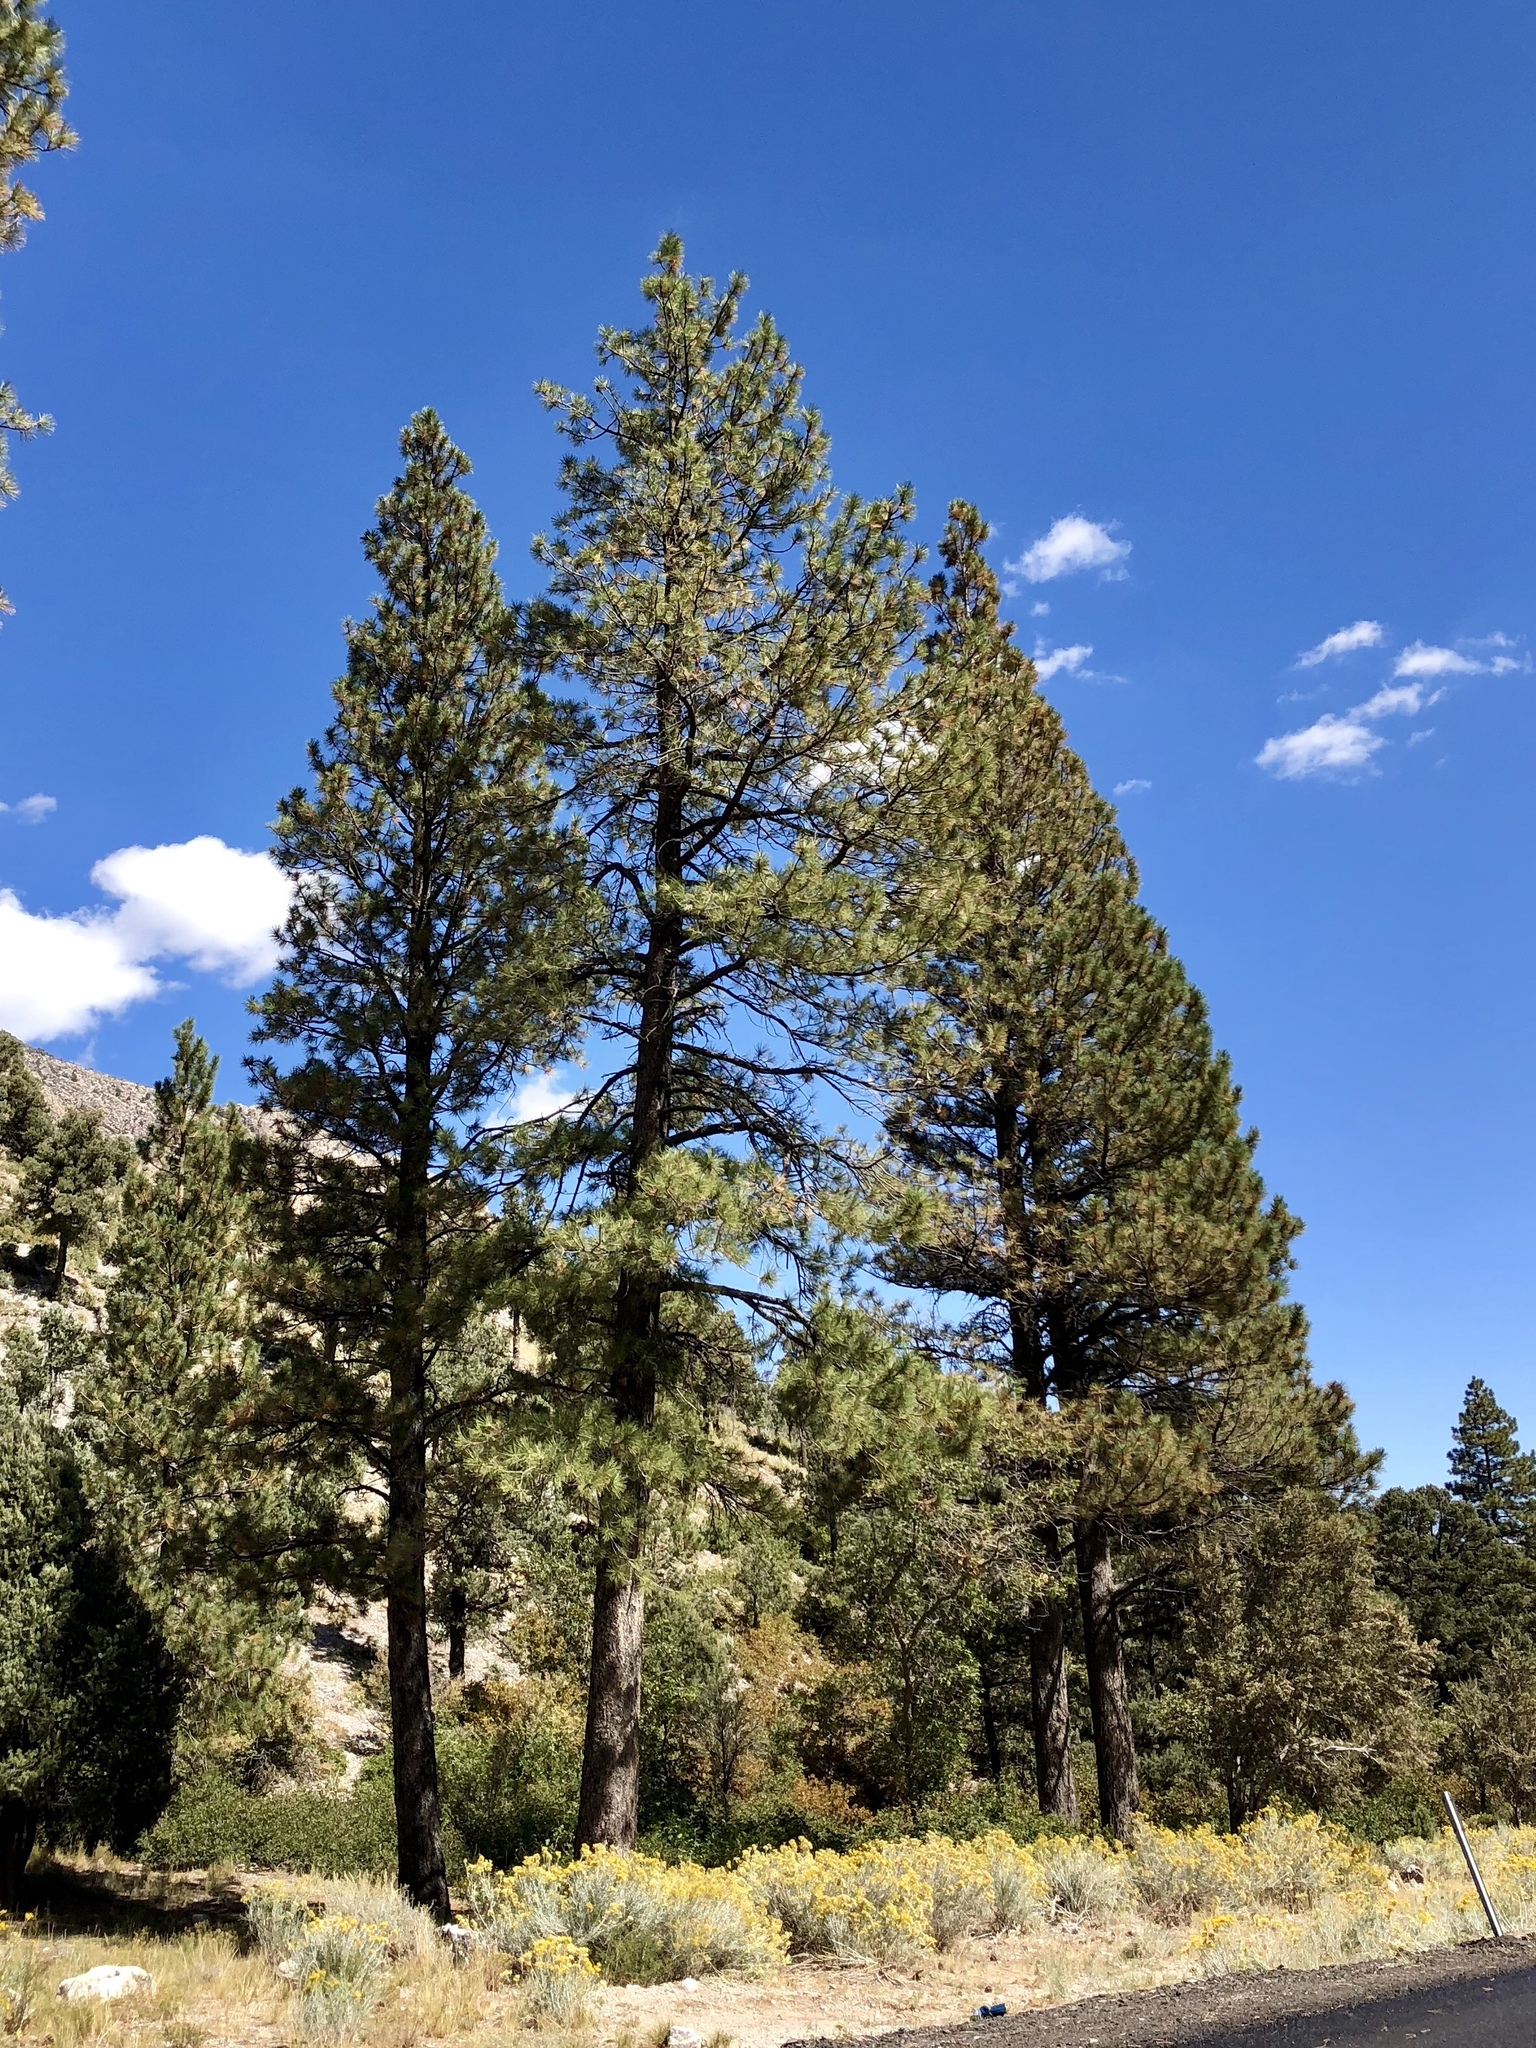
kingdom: Plantae
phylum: Tracheophyta
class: Pinopsida
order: Pinales
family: Pinaceae
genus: Pinus
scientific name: Pinus ponderosa
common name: Western yellow-pine
